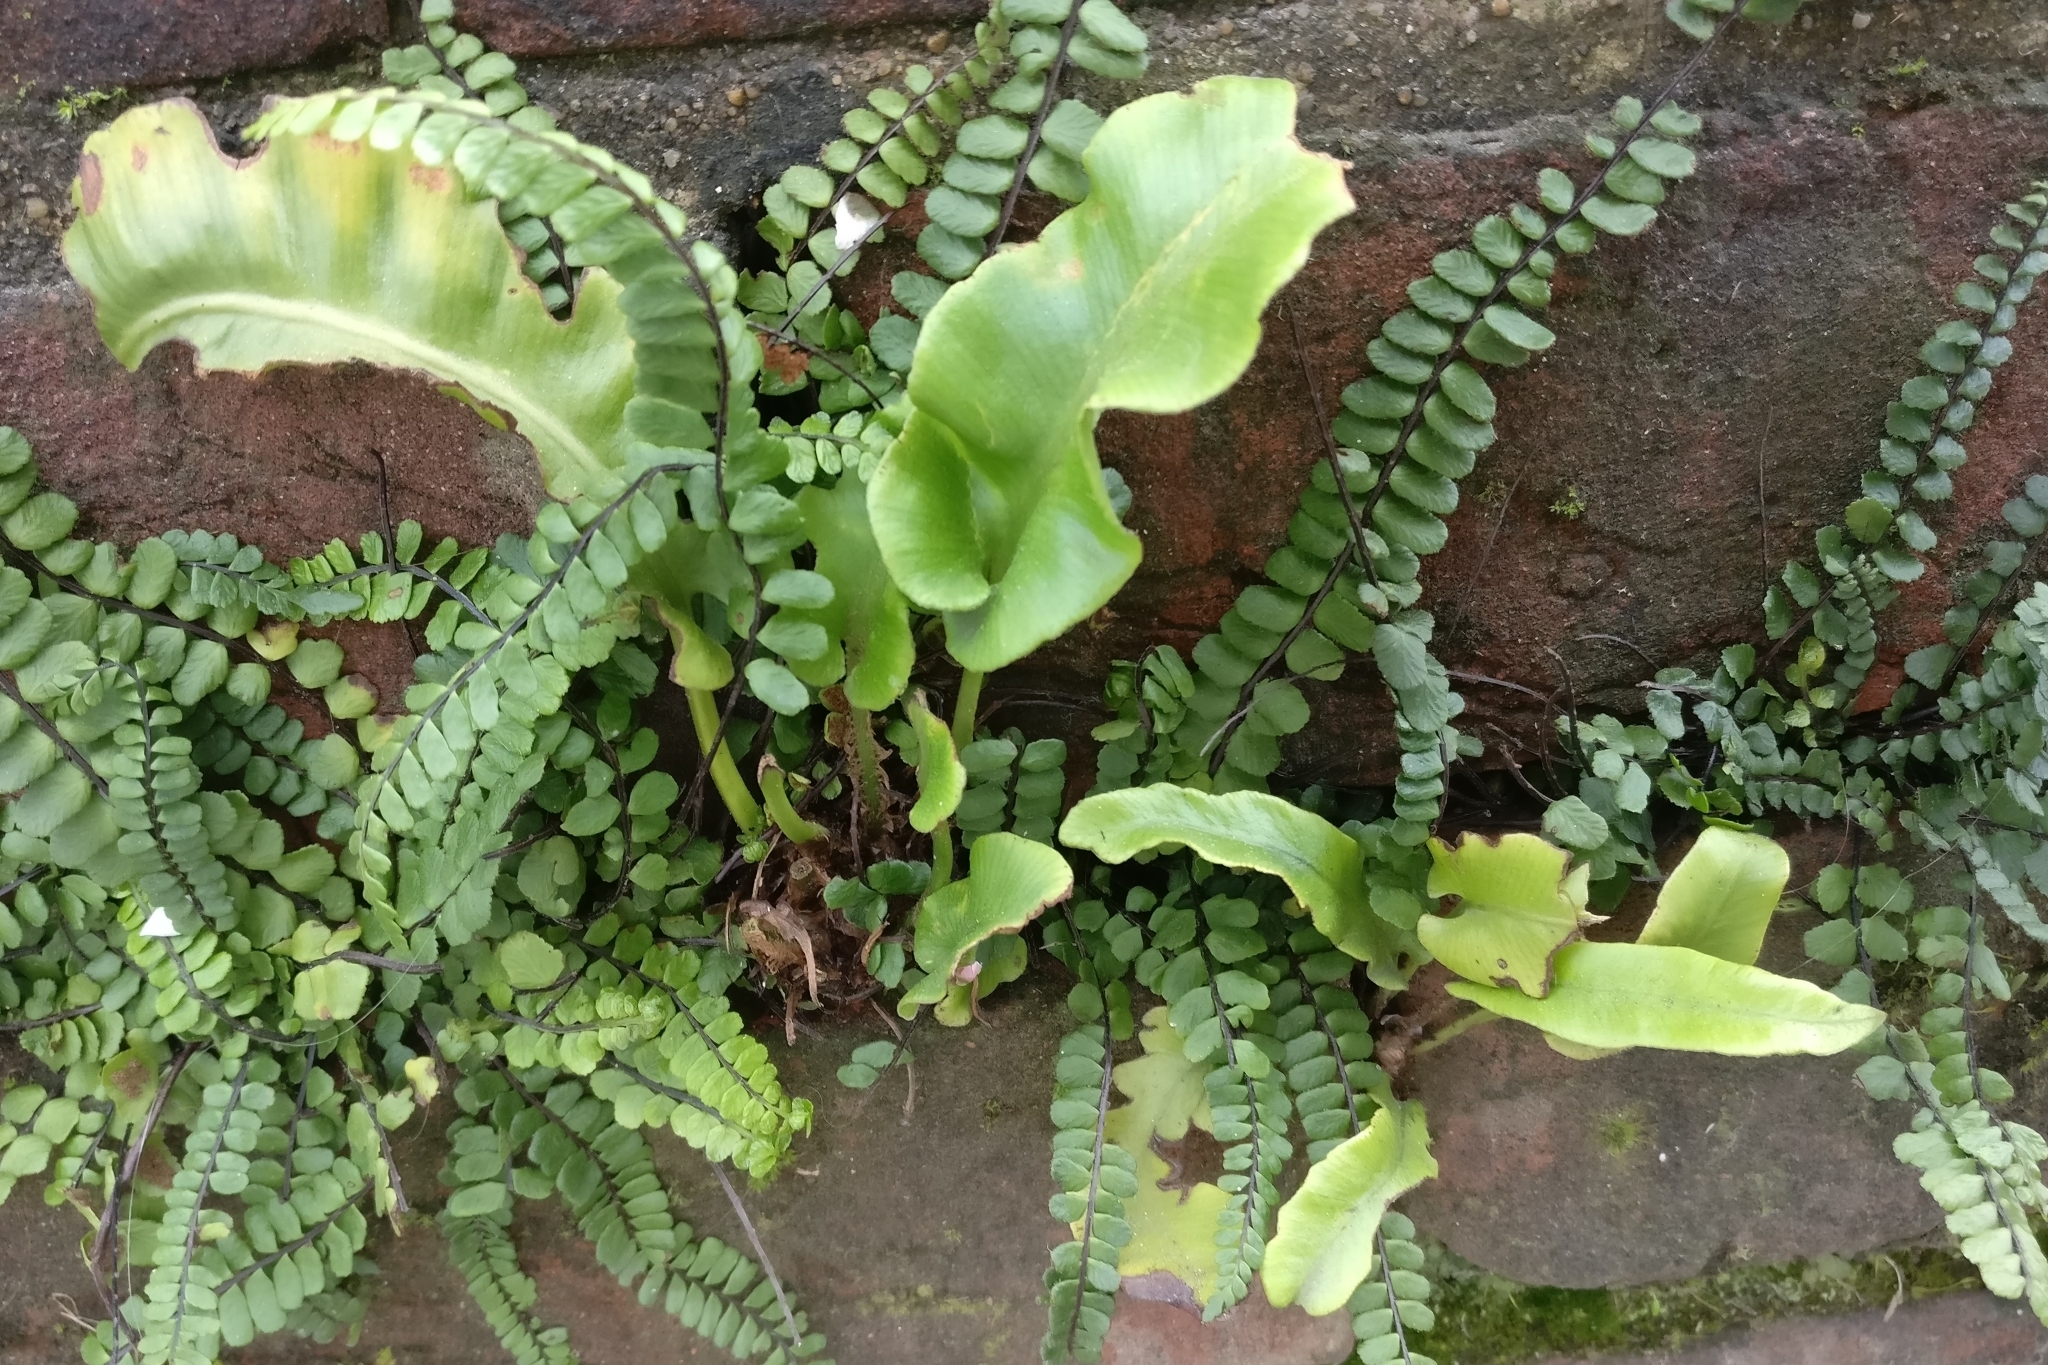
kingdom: Plantae
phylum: Tracheophyta
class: Polypodiopsida
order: Polypodiales
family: Aspleniaceae
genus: Asplenium
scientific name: Asplenium scolopendrium
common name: Hart's-tongue fern
